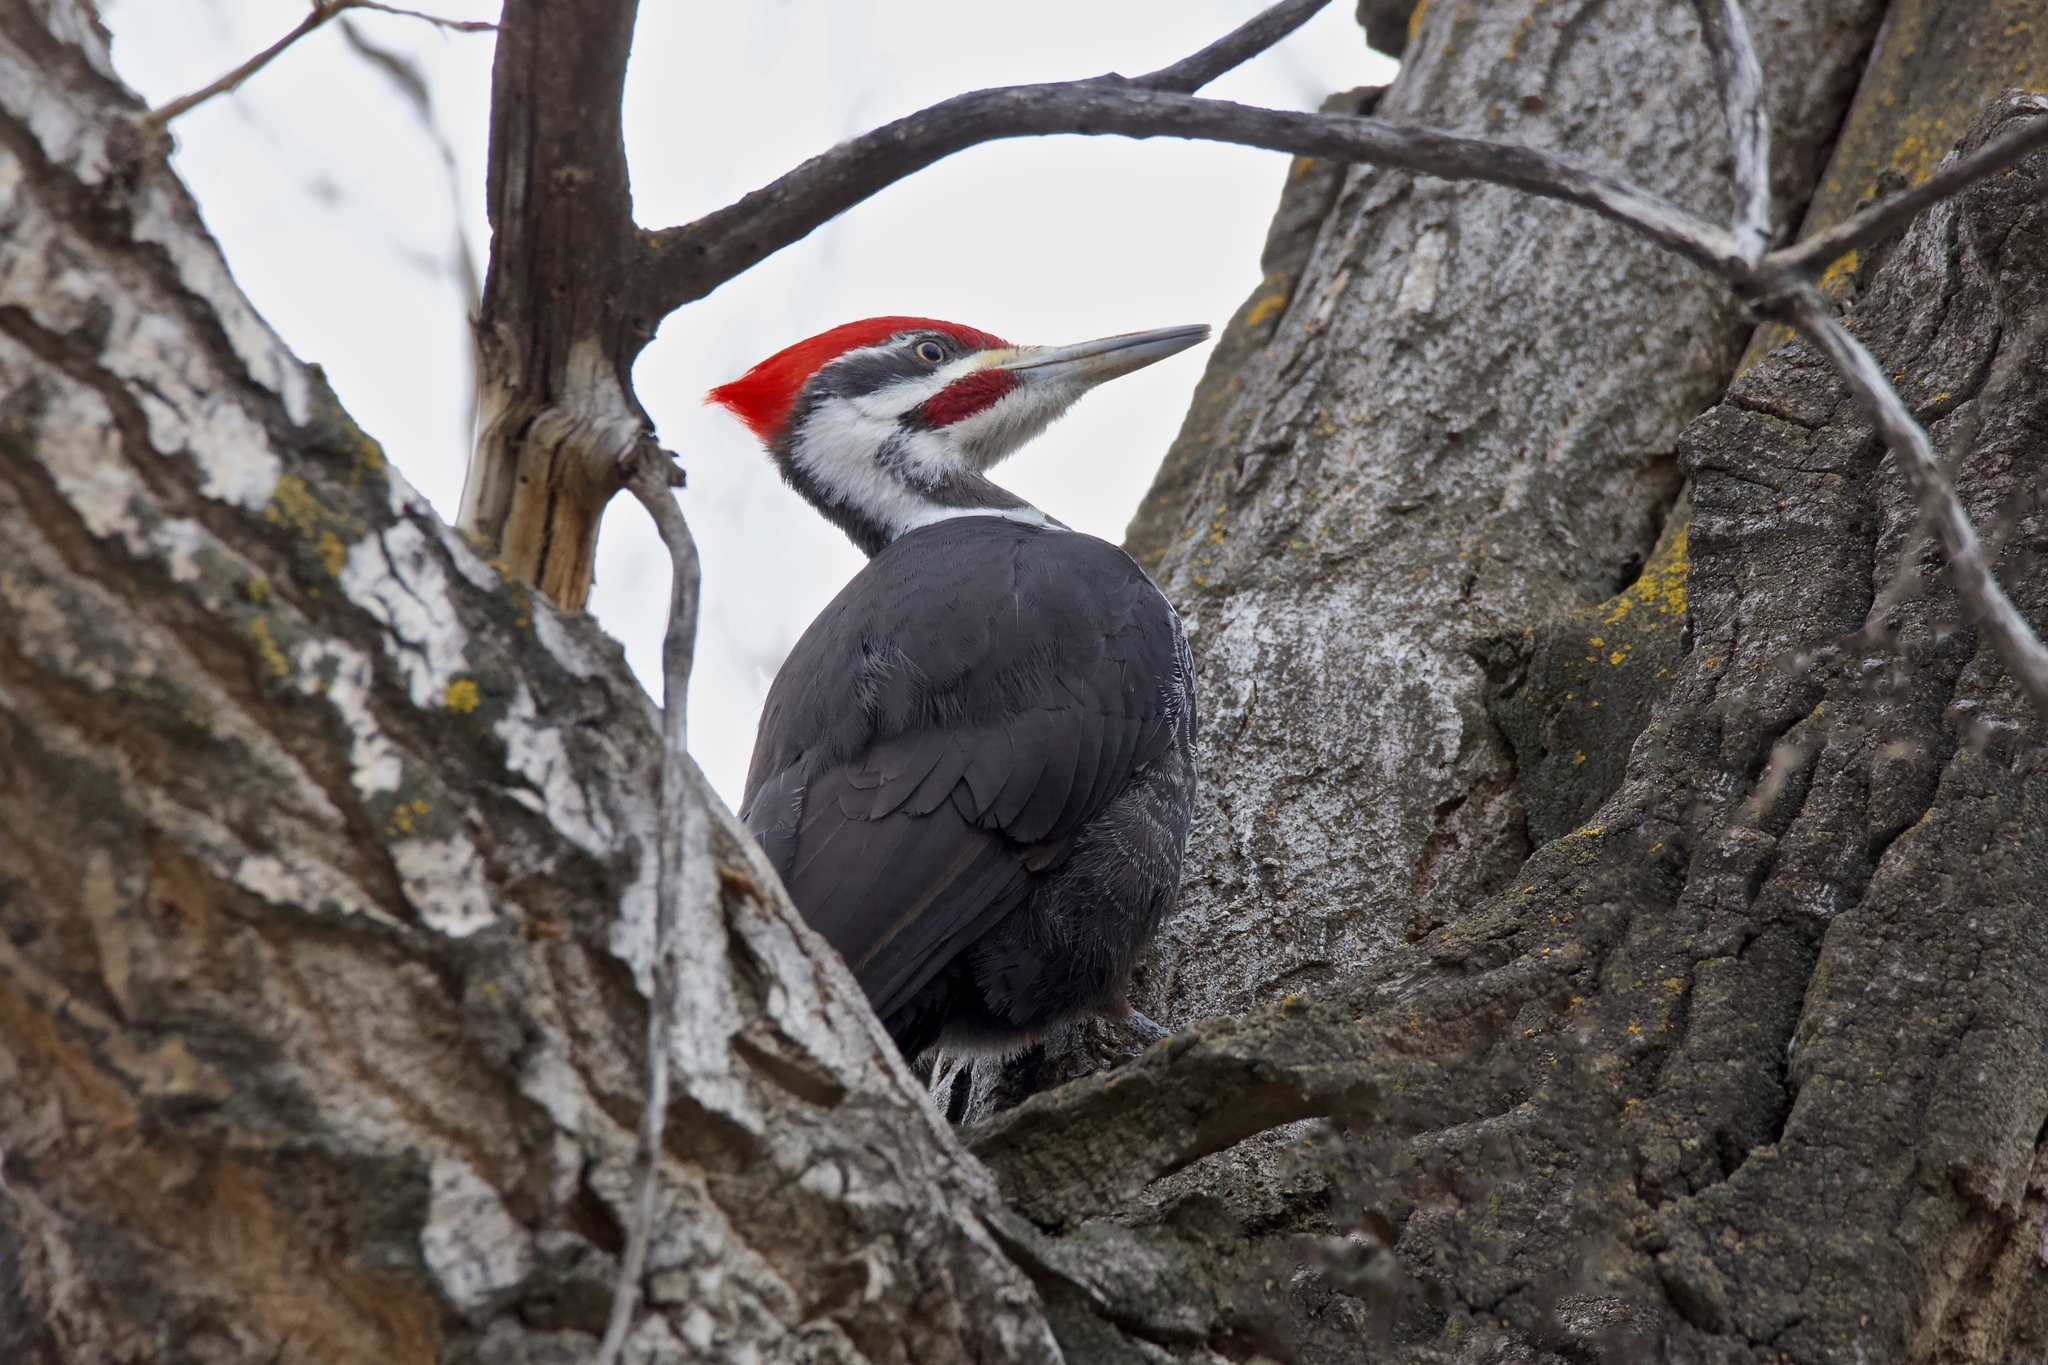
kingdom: Animalia
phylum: Chordata
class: Aves
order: Piciformes
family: Picidae
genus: Dryocopus
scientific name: Dryocopus pileatus
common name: Pileated woodpecker
